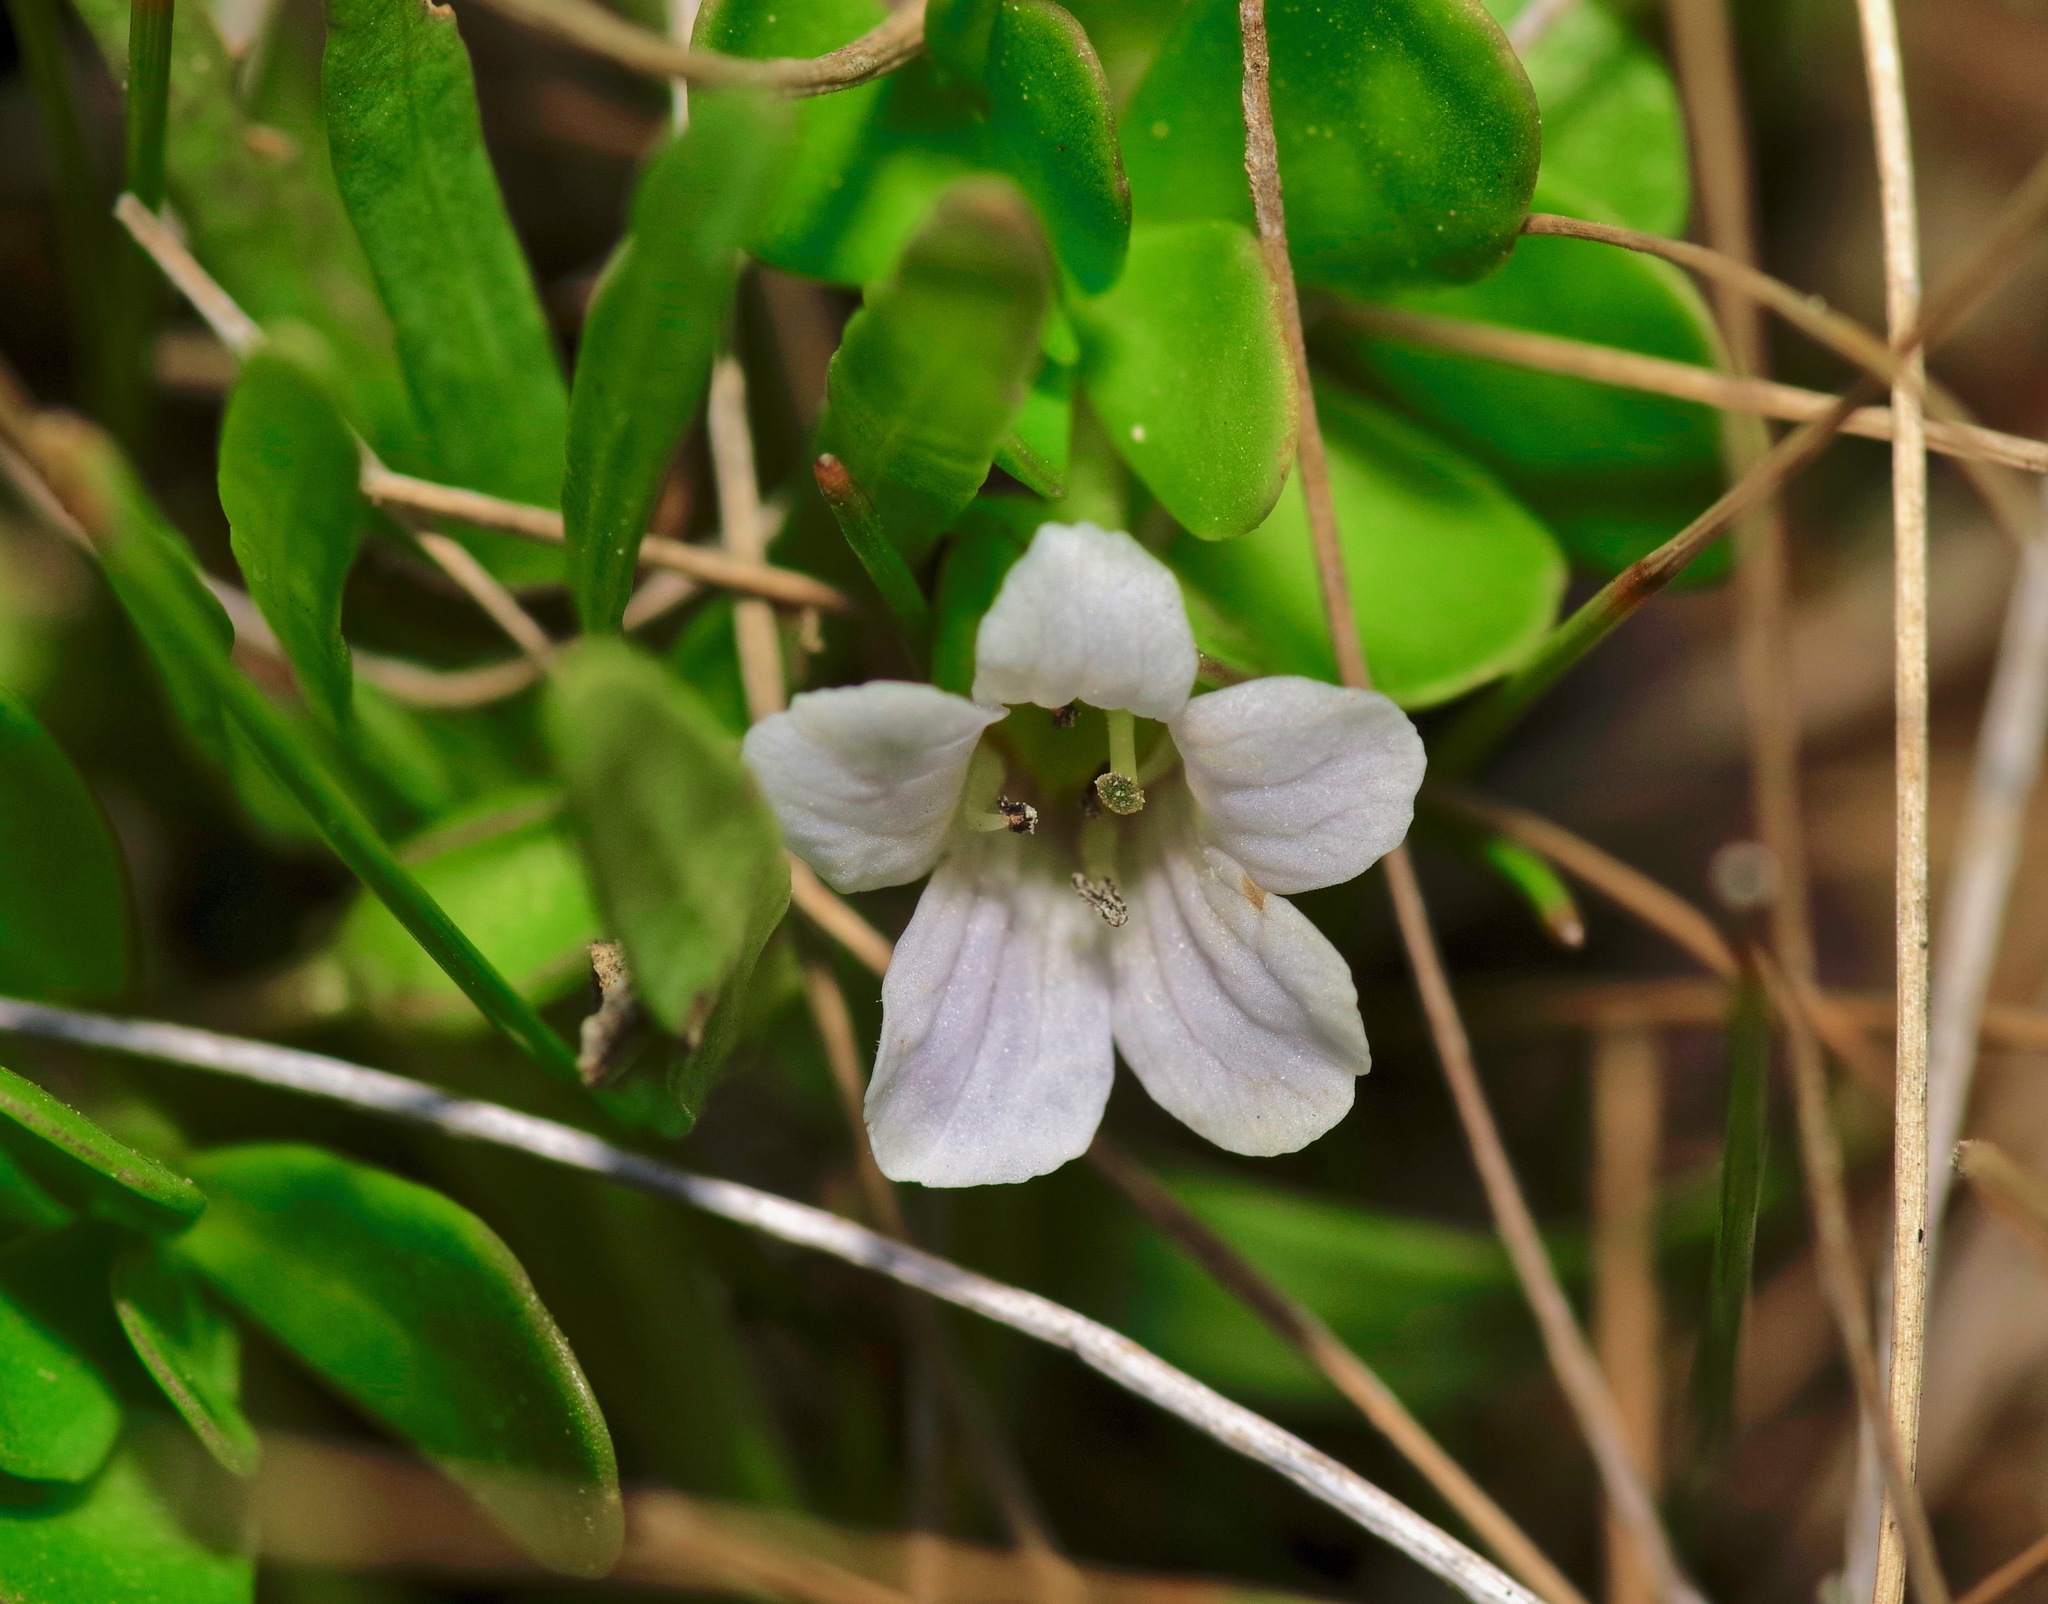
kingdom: Plantae
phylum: Tracheophyta
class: Magnoliopsida
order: Lamiales
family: Plantaginaceae
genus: Bacopa
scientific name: Bacopa monnieri
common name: Indian-pennywort
